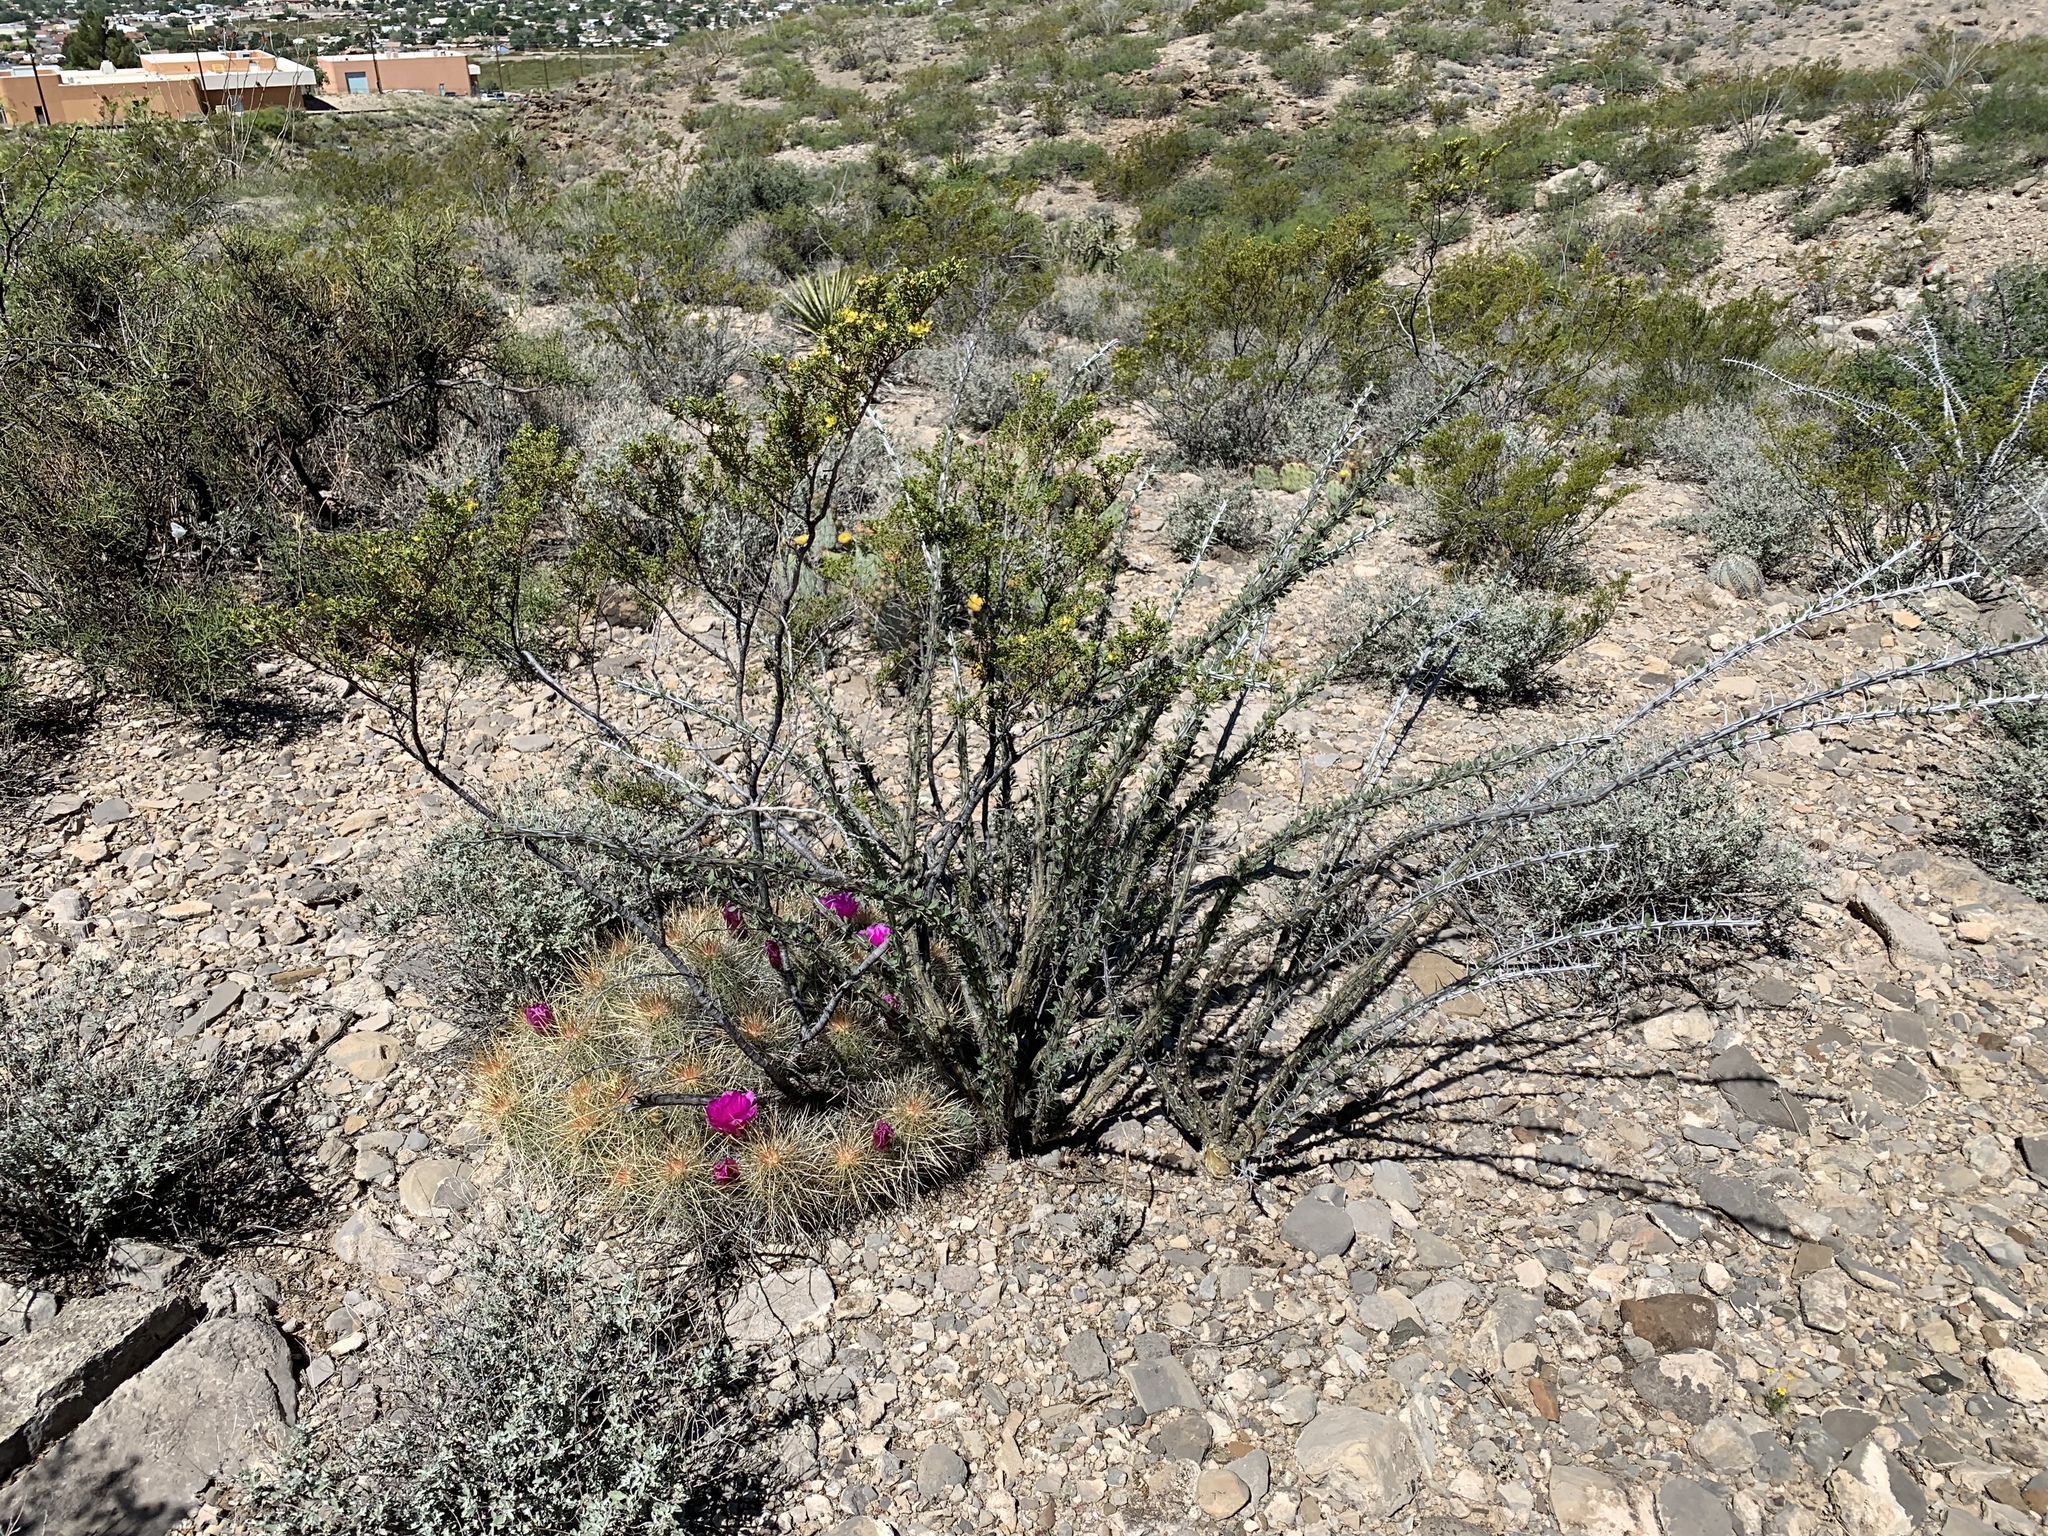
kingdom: Plantae
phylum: Tracheophyta
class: Magnoliopsida
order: Ericales
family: Fouquieriaceae
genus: Fouquieria
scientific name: Fouquieria splendens
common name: Vine-cactus
